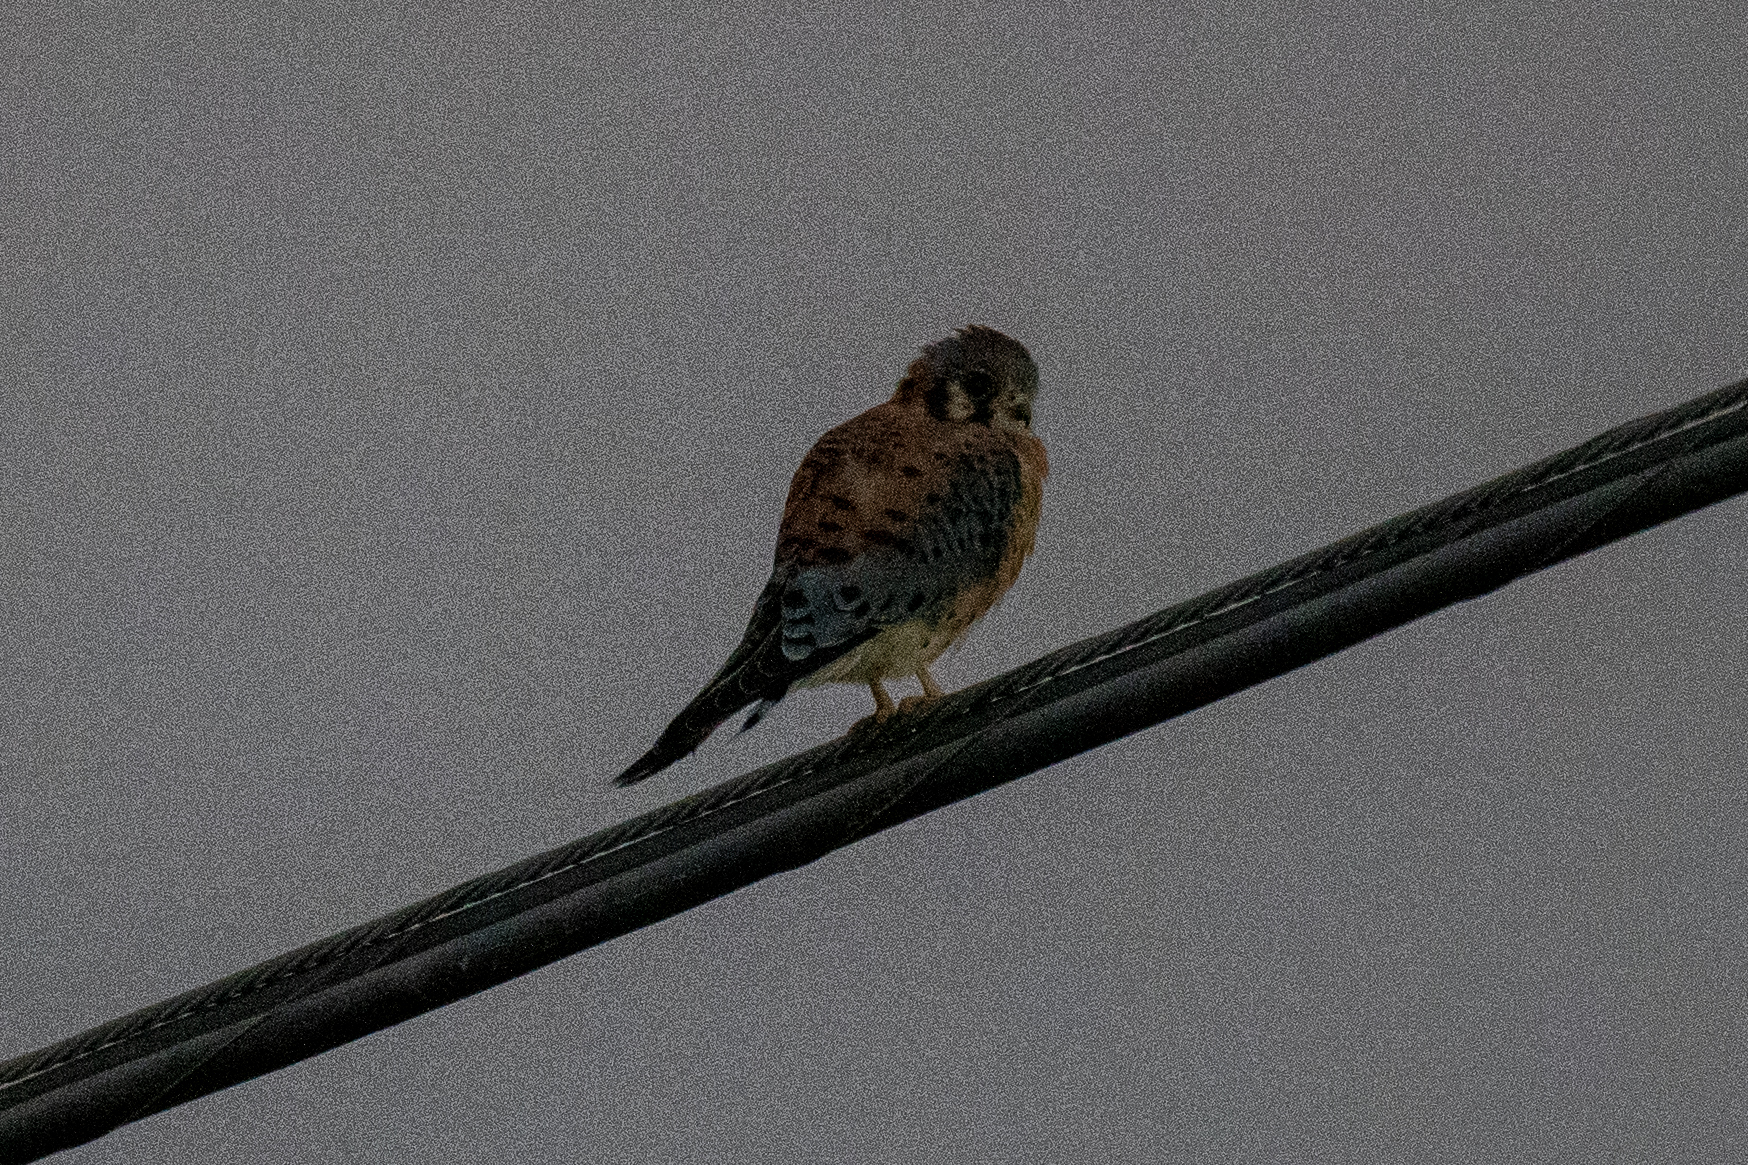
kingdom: Animalia
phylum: Chordata
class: Aves
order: Falconiformes
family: Falconidae
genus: Falco
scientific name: Falco sparverius
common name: American kestrel
